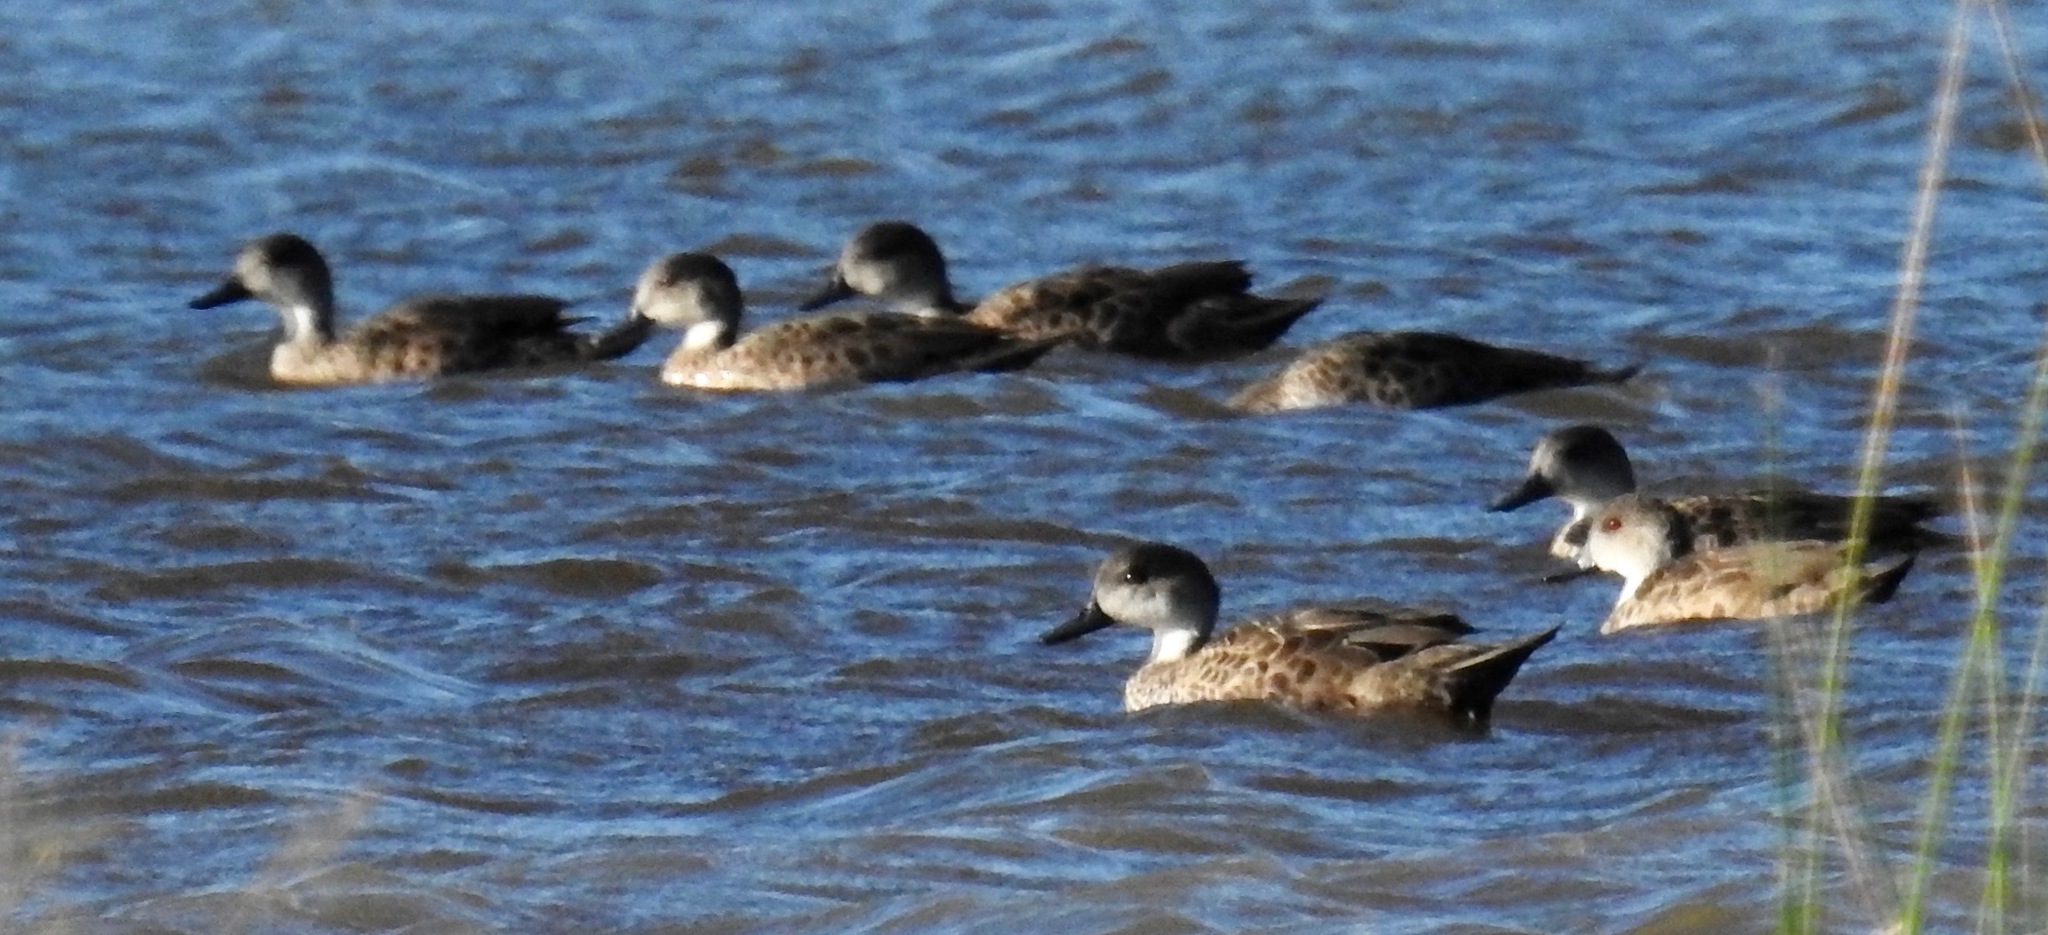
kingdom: Animalia
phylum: Chordata
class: Aves
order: Anseriformes
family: Anatidae
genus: Anas
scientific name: Anas gracilis
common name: Grey teal
